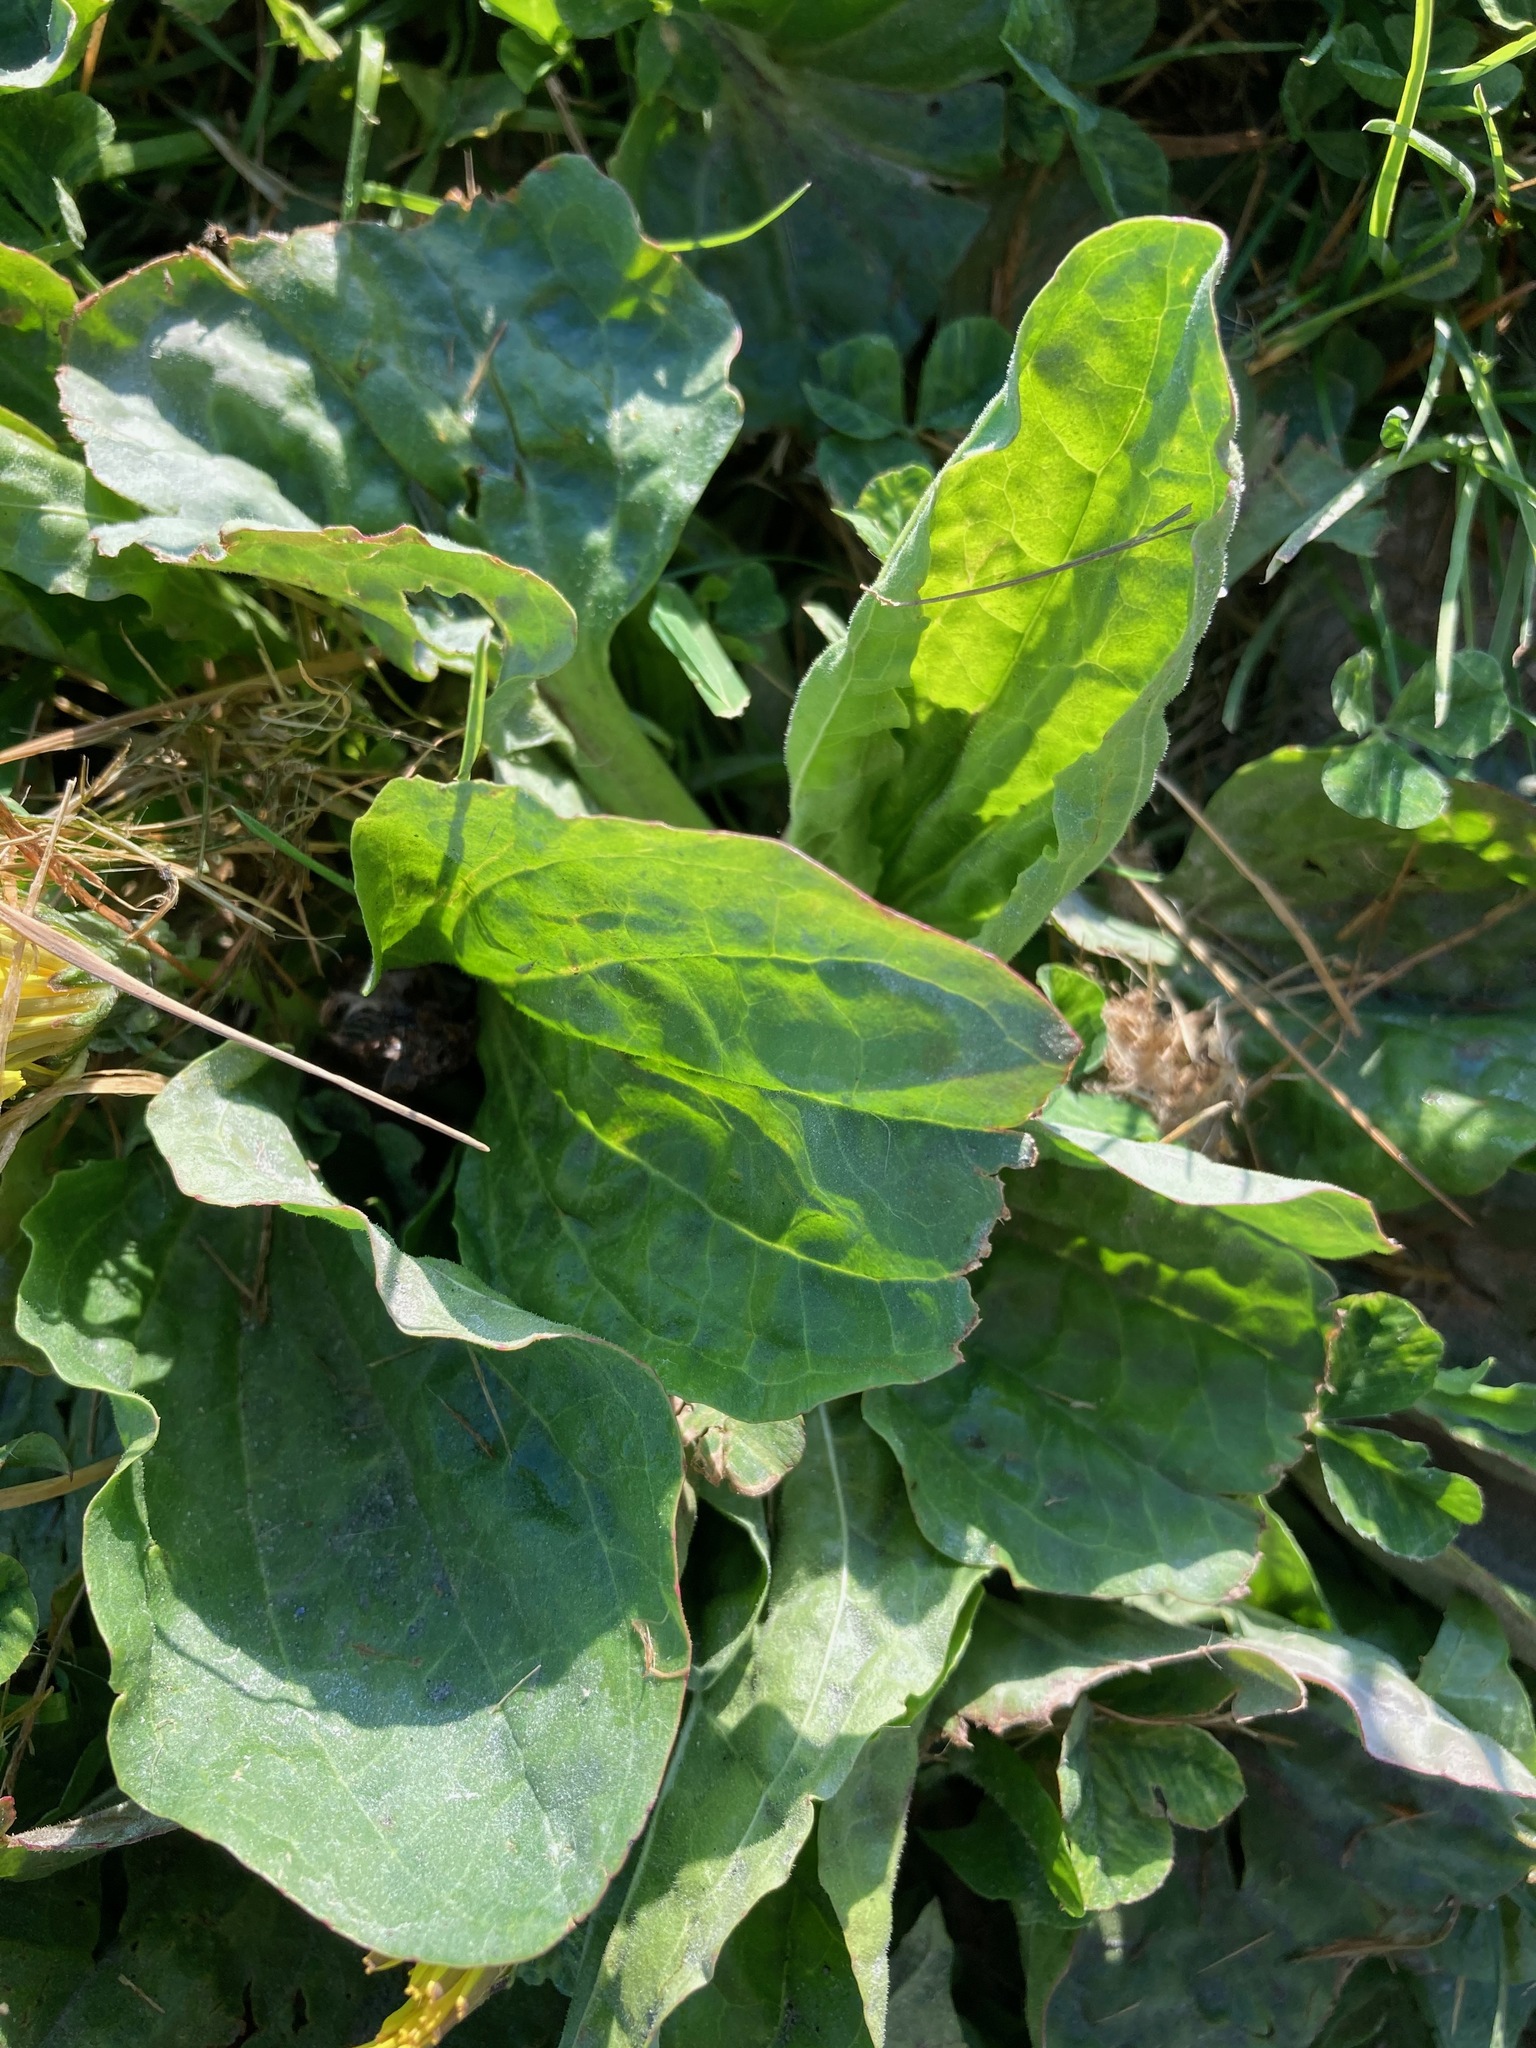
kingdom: Plantae
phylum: Tracheophyta
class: Magnoliopsida
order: Lamiales
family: Plantaginaceae
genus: Plantago
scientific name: Plantago major
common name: Common plantain
